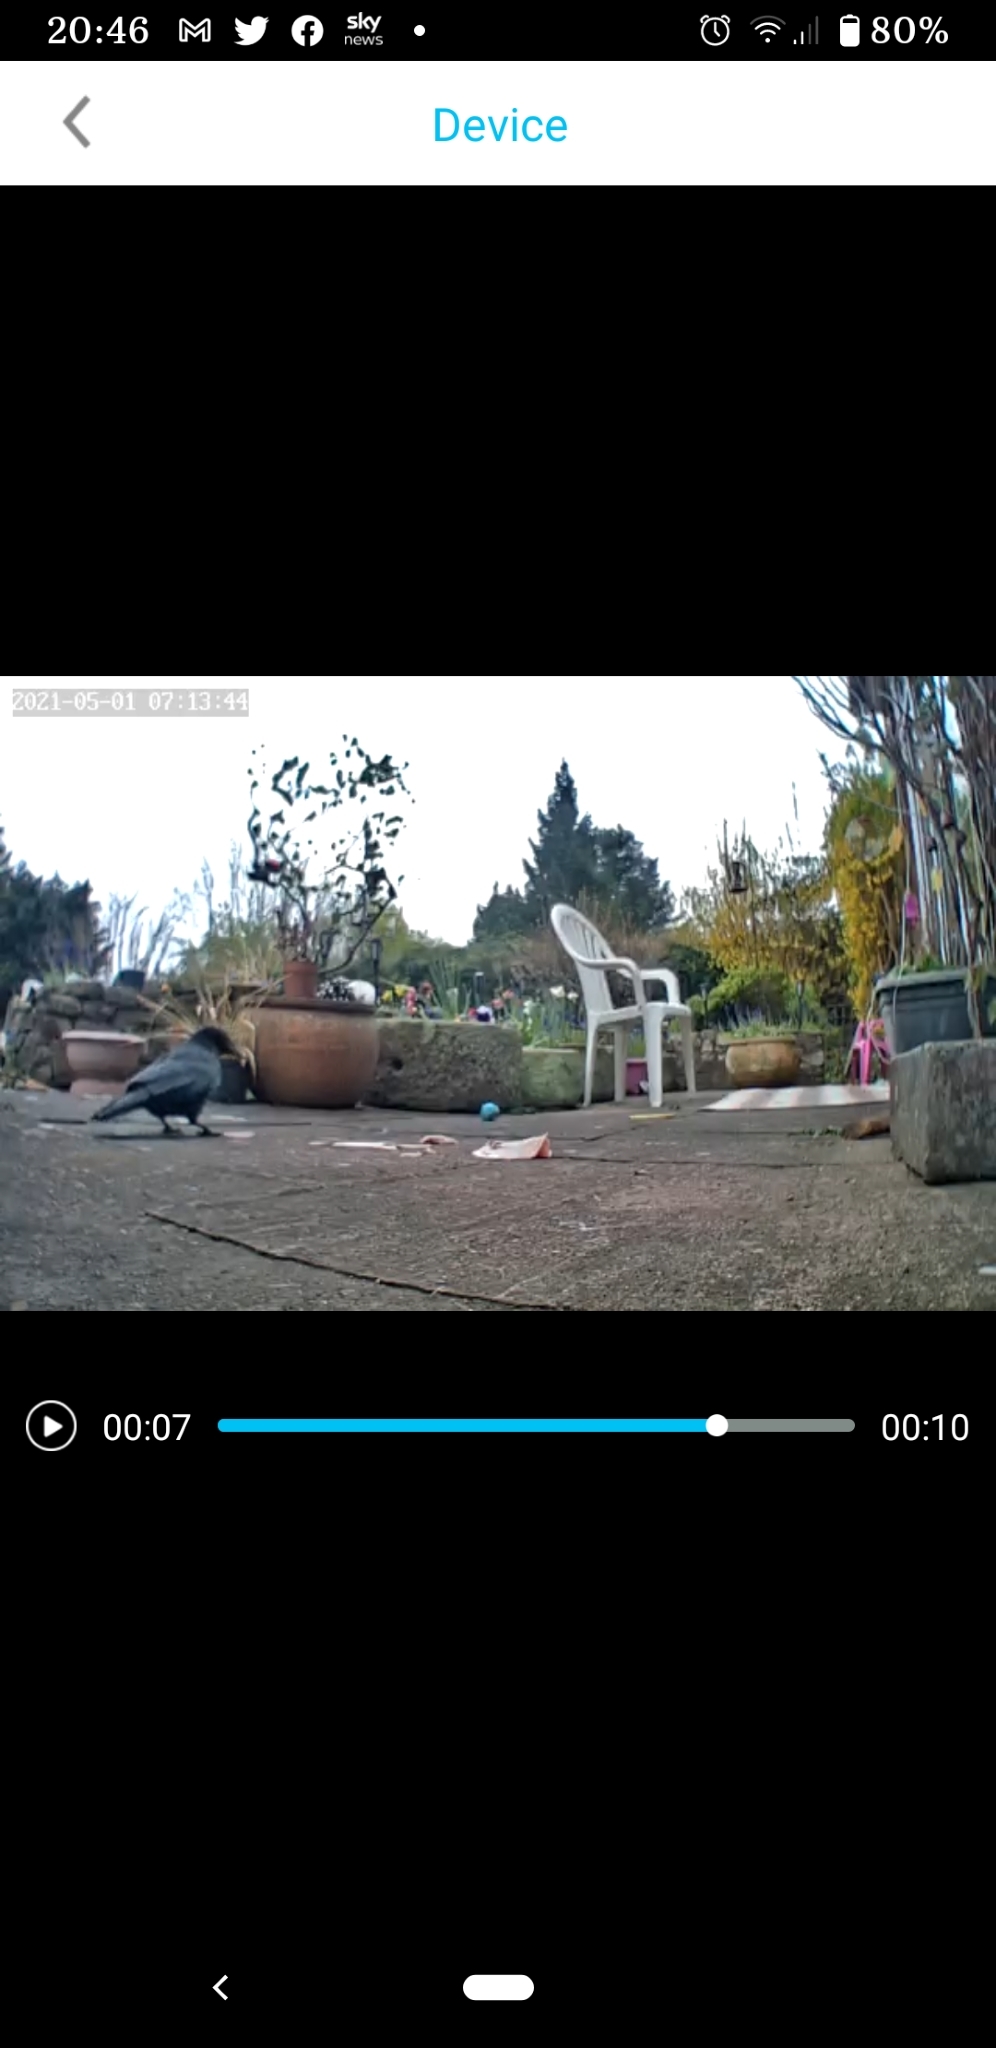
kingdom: Animalia
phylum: Chordata
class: Aves
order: Passeriformes
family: Corvidae
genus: Corvus
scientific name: Corvus corone
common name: Carrion crow
